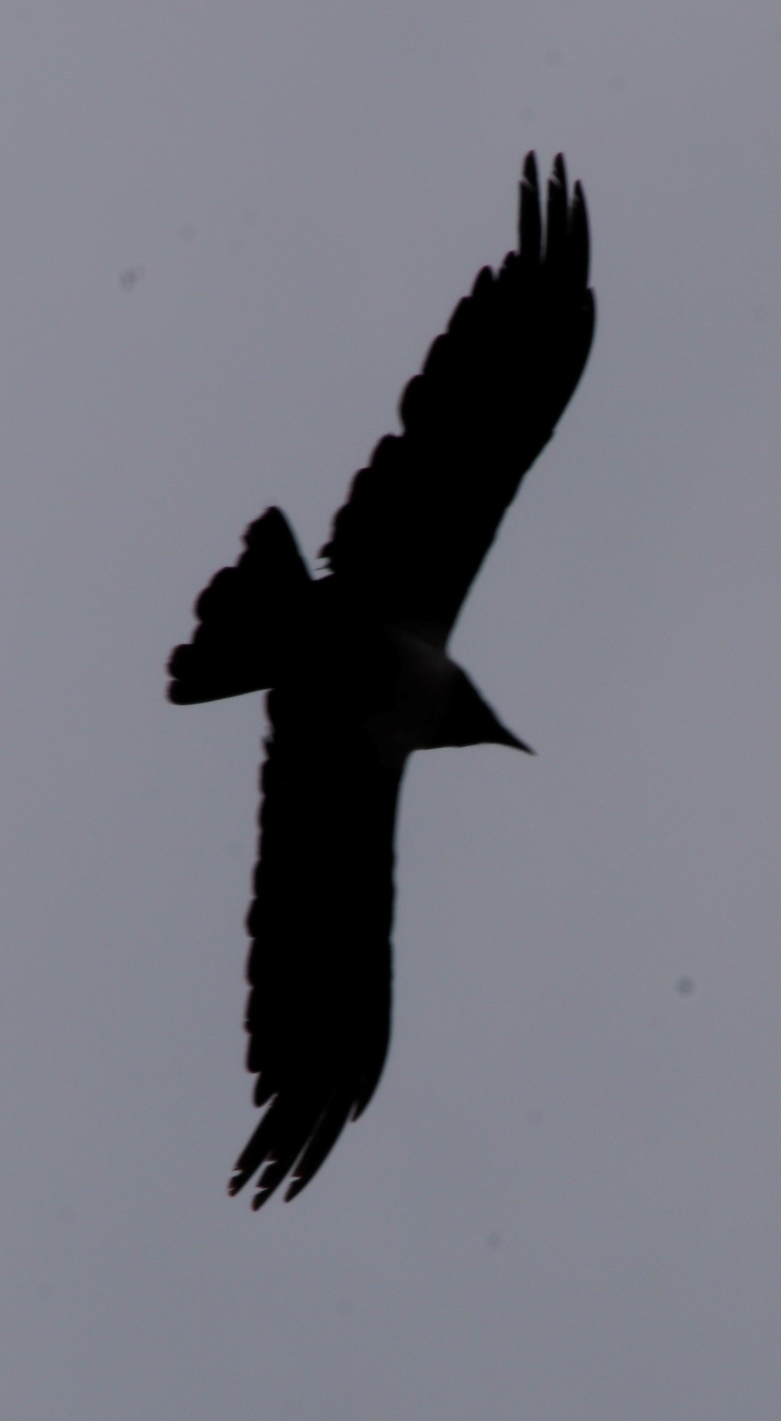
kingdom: Animalia
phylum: Chordata
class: Aves
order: Passeriformes
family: Corvidae
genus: Corvus
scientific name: Corvus albicollis
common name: White-necked raven
